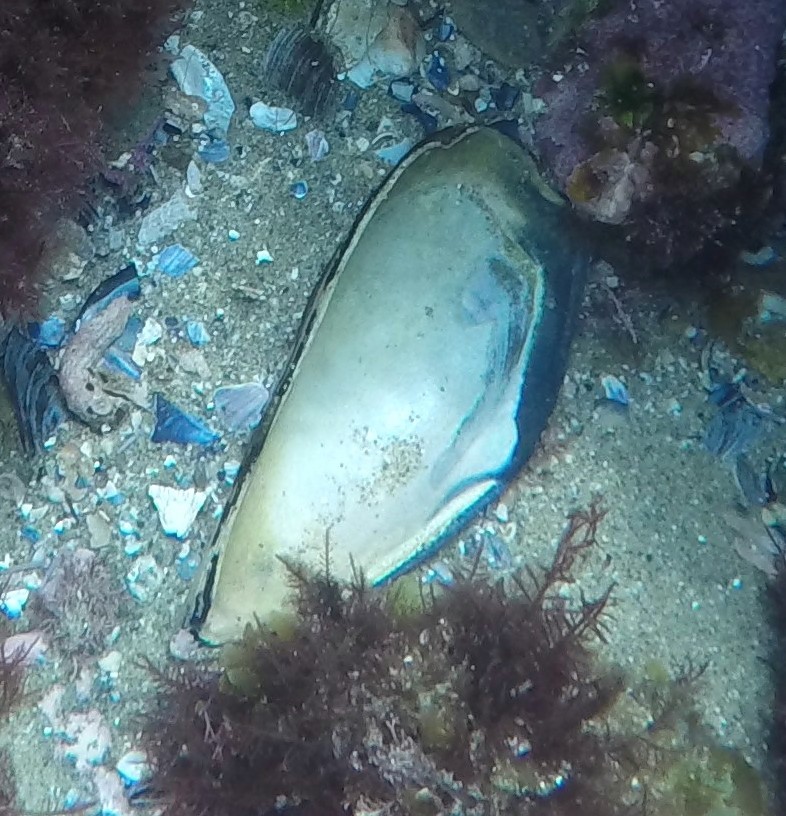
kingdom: Animalia
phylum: Mollusca
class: Bivalvia
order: Mytilida
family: Mytilidae
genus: Mytilus
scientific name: Mytilus californianus
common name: California mussel
